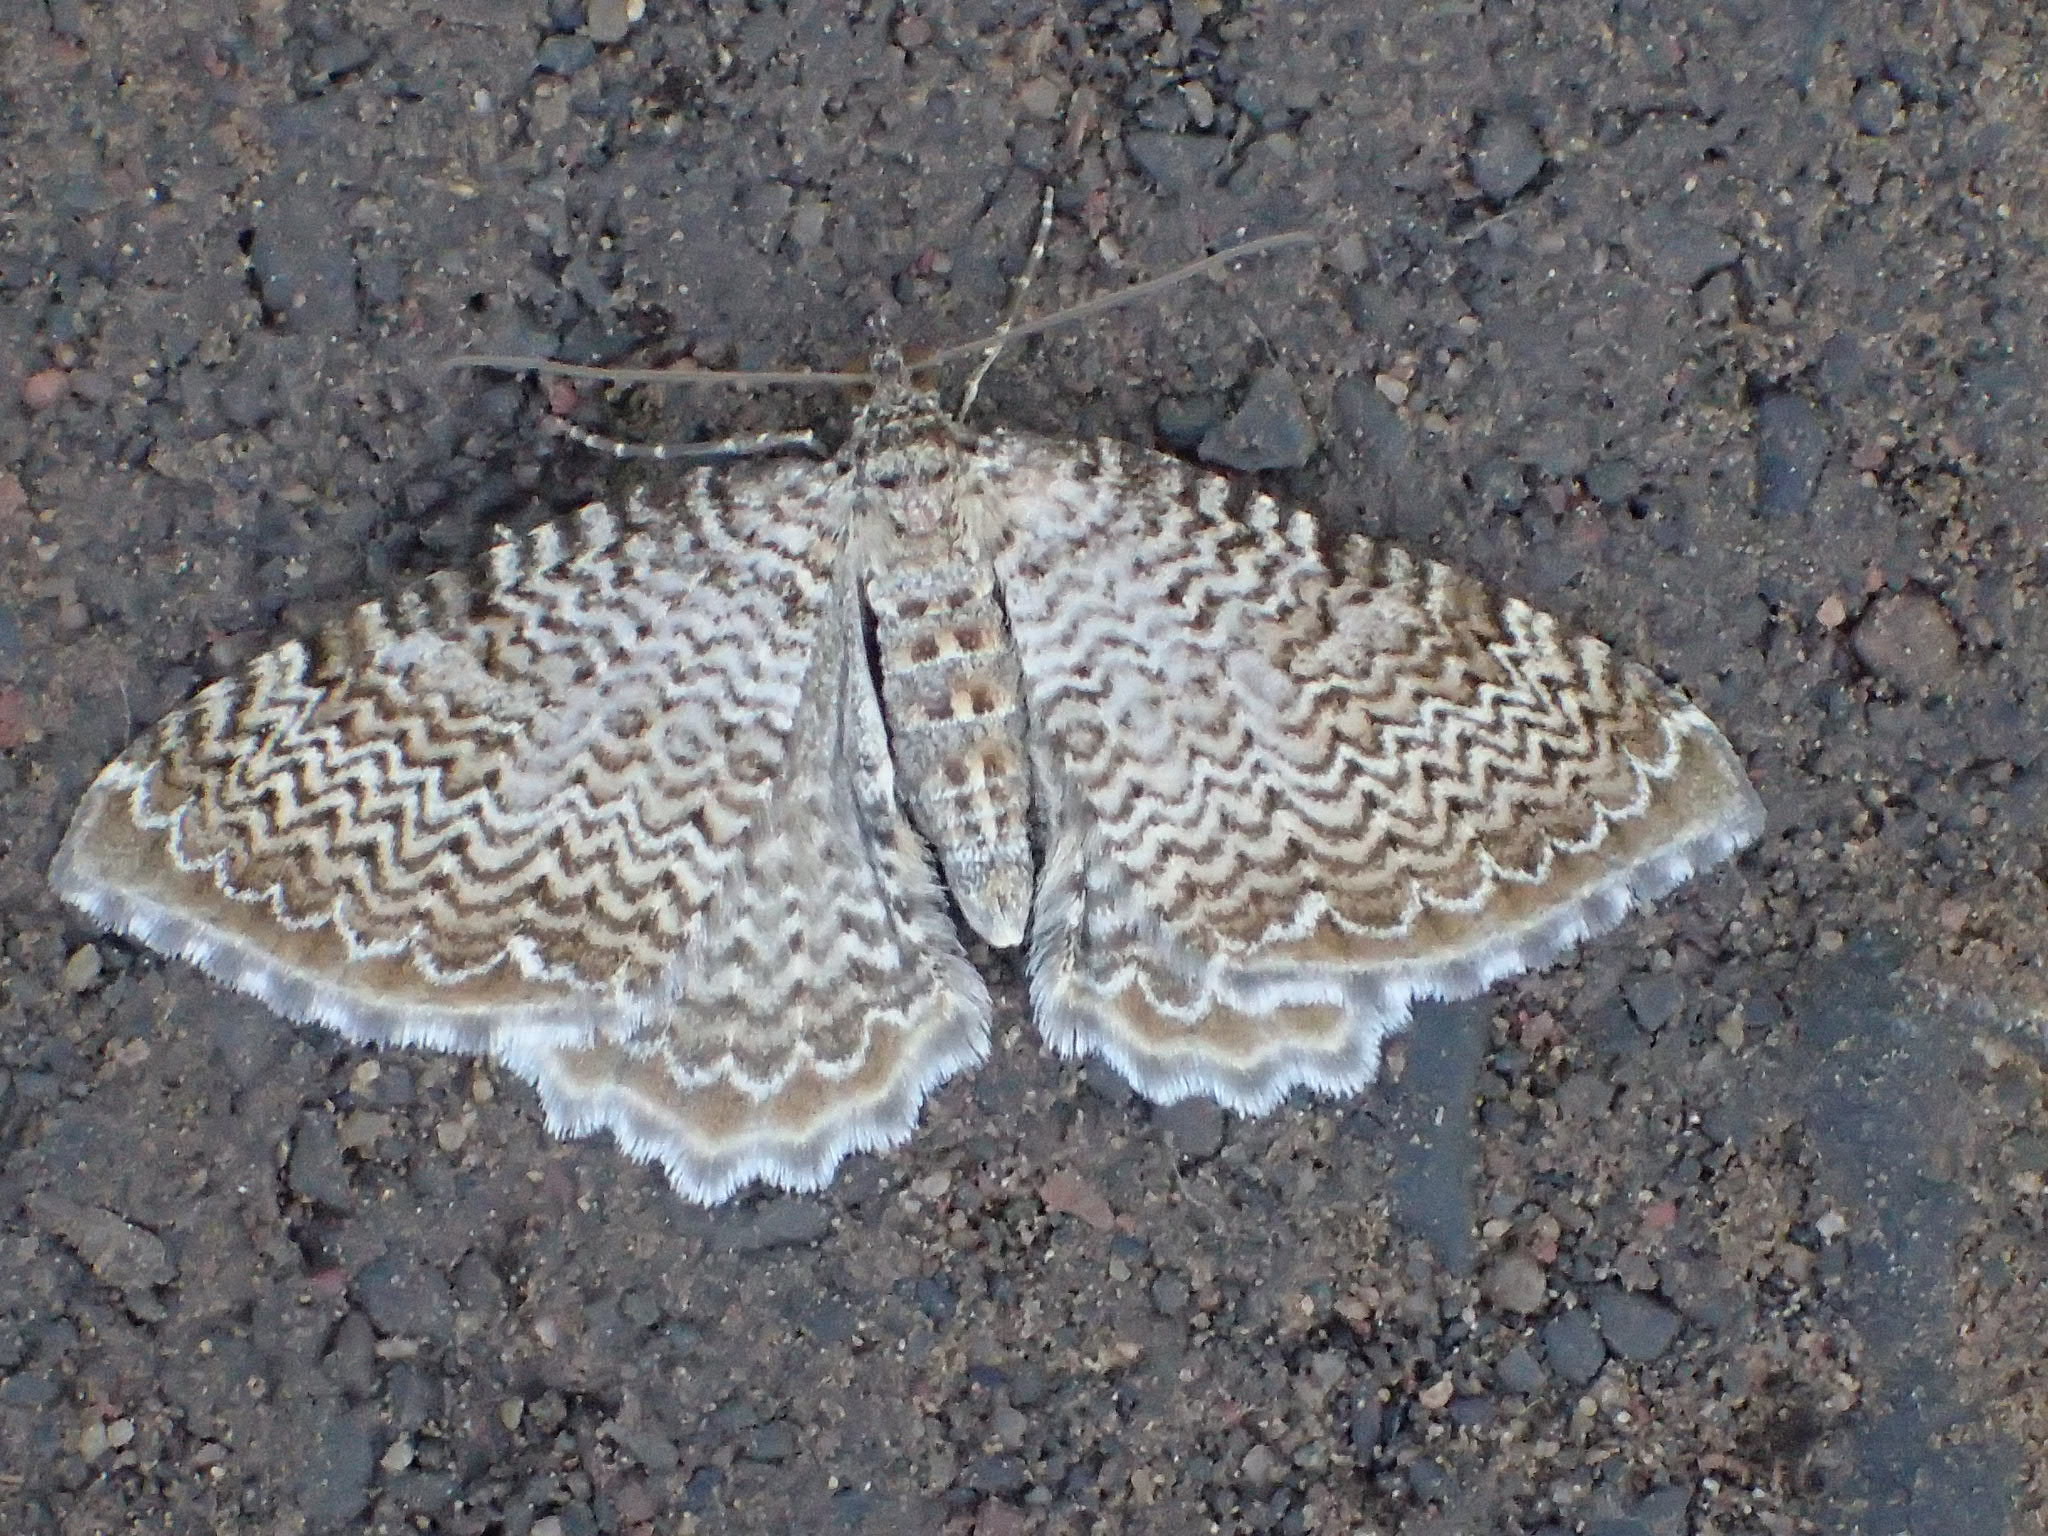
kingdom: Animalia
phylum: Arthropoda
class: Insecta
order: Lepidoptera
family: Geometridae
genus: Rheumaptera
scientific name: Rheumaptera
